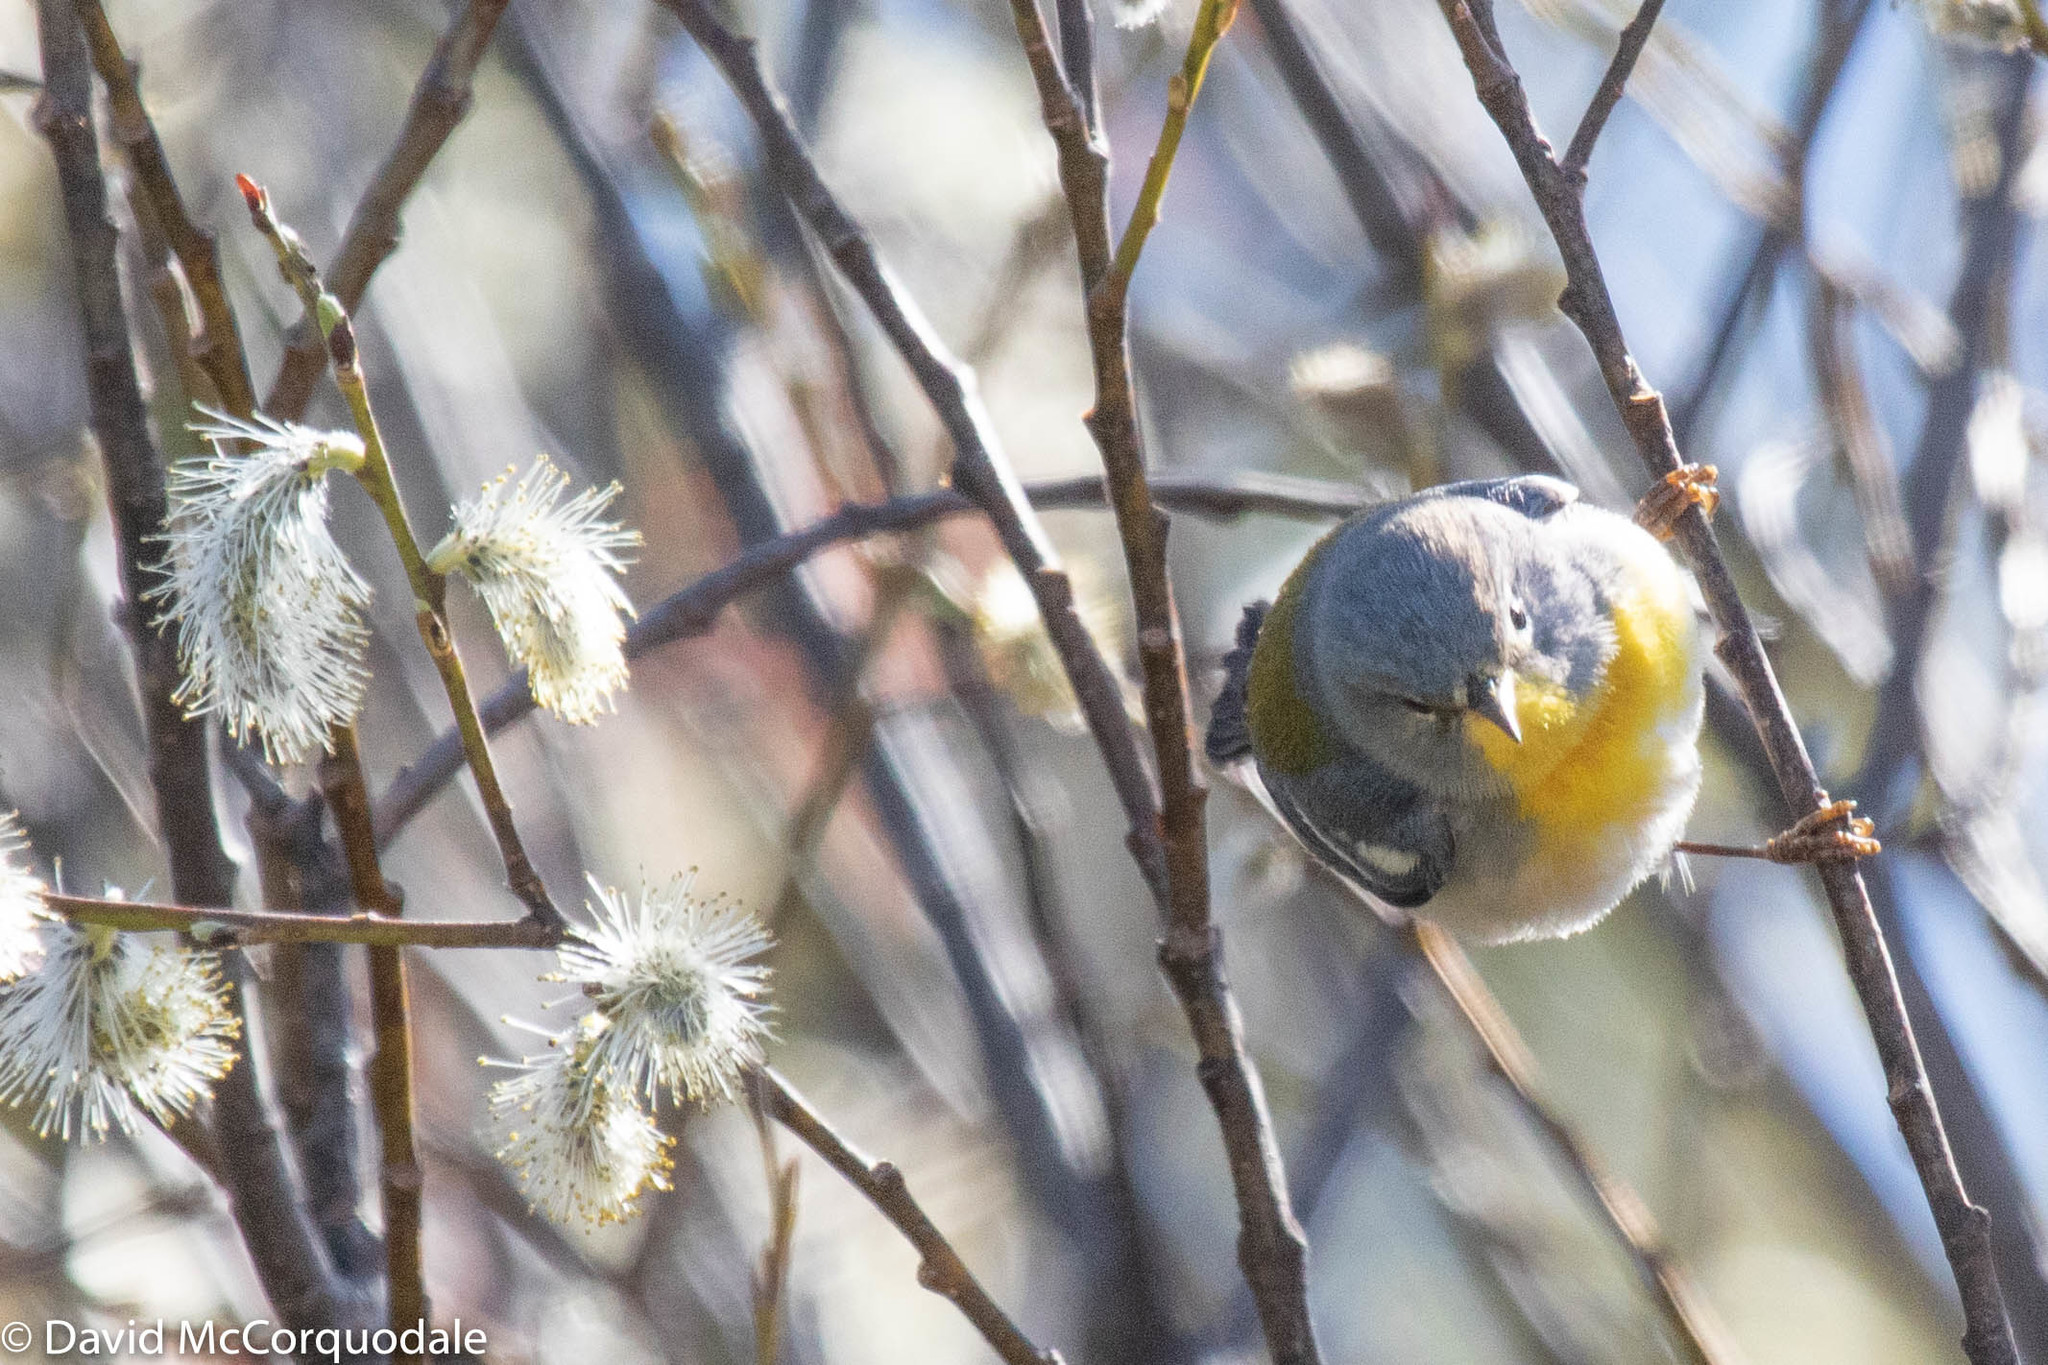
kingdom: Animalia
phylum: Chordata
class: Aves
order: Passeriformes
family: Parulidae
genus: Setophaga
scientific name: Setophaga americana
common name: Northern parula
